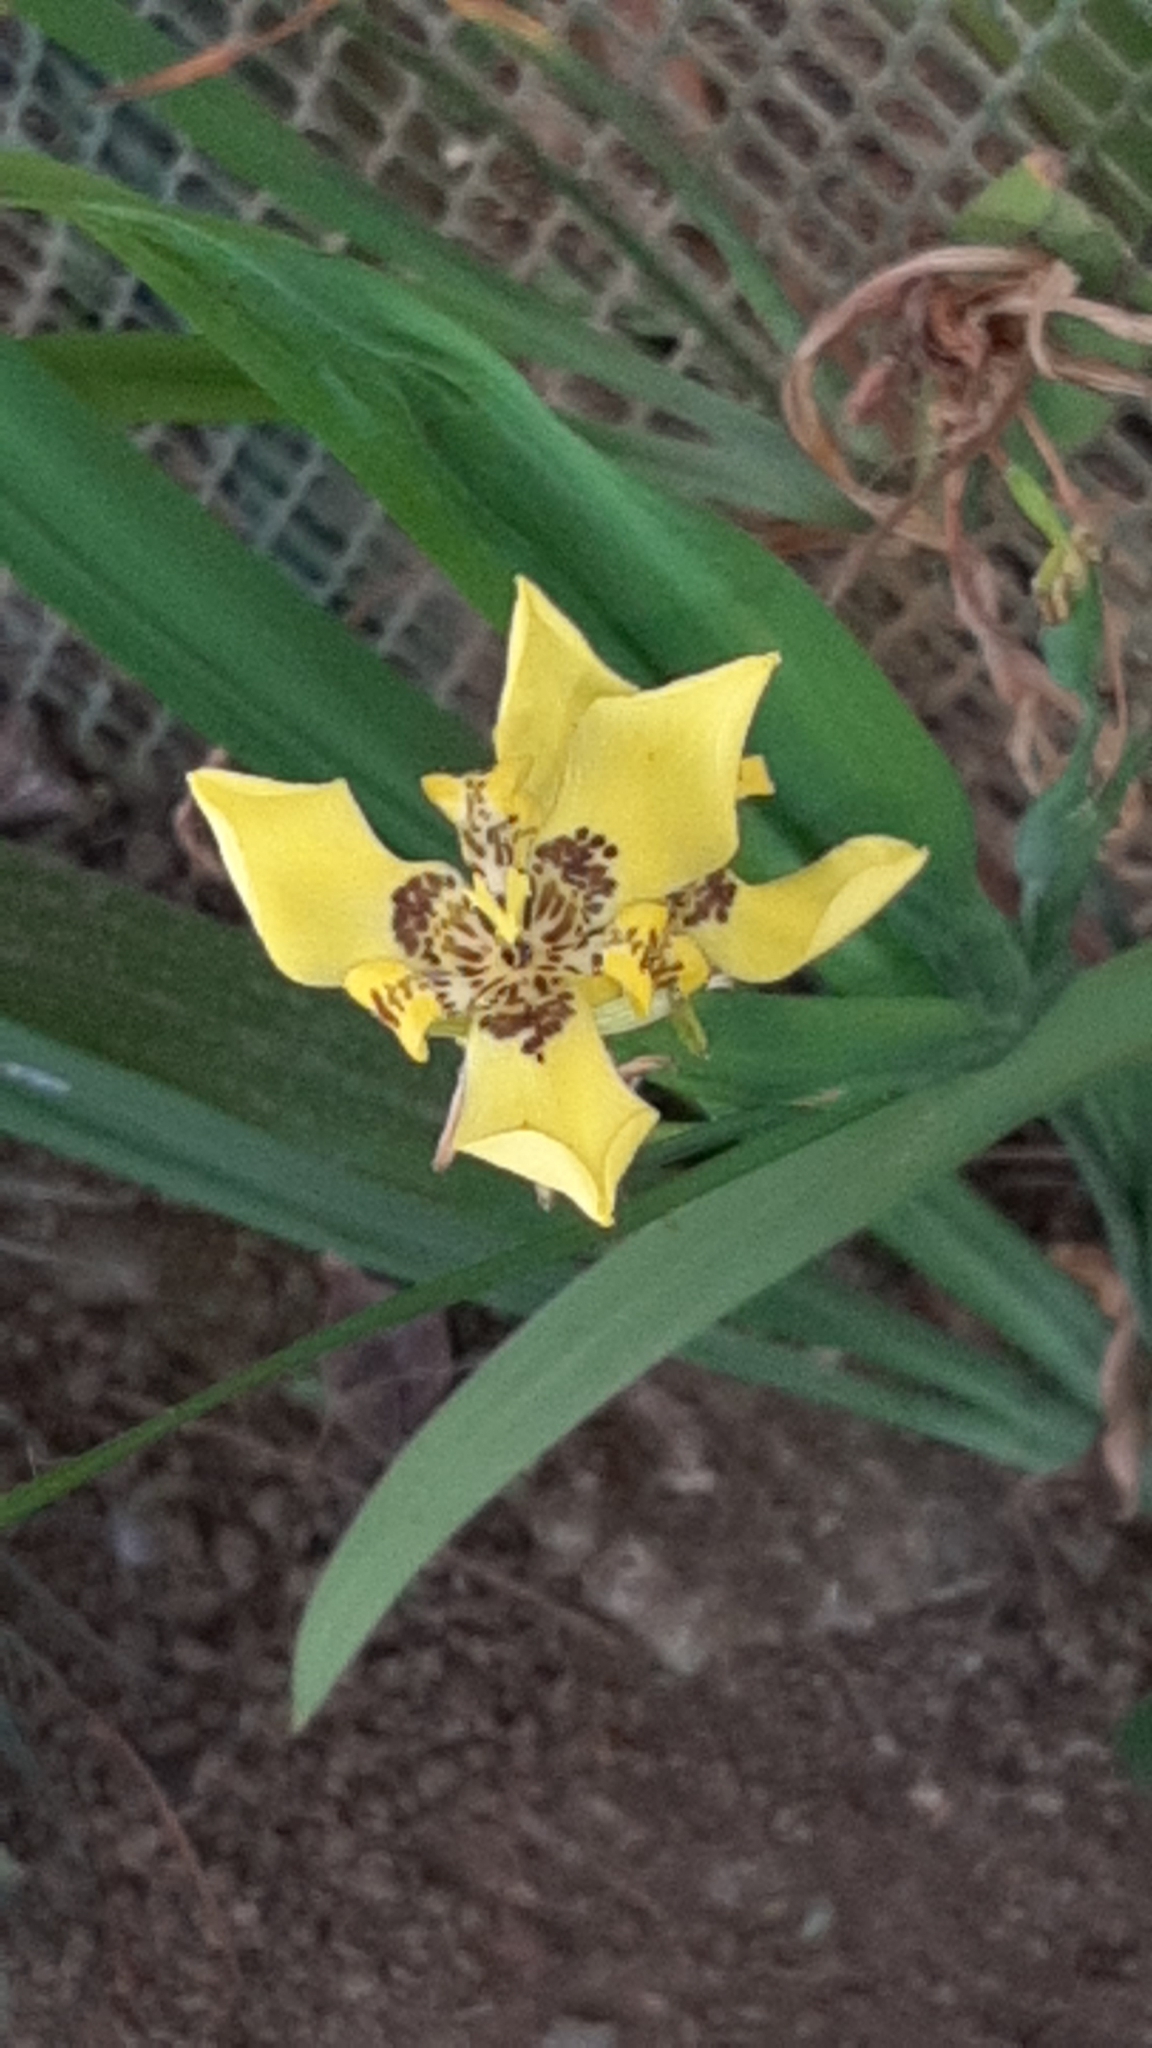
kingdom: Plantae
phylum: Tracheophyta
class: Liliopsida
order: Asparagales
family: Iridaceae
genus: Trimezia
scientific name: Trimezia steyermarkii
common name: Trimezia
